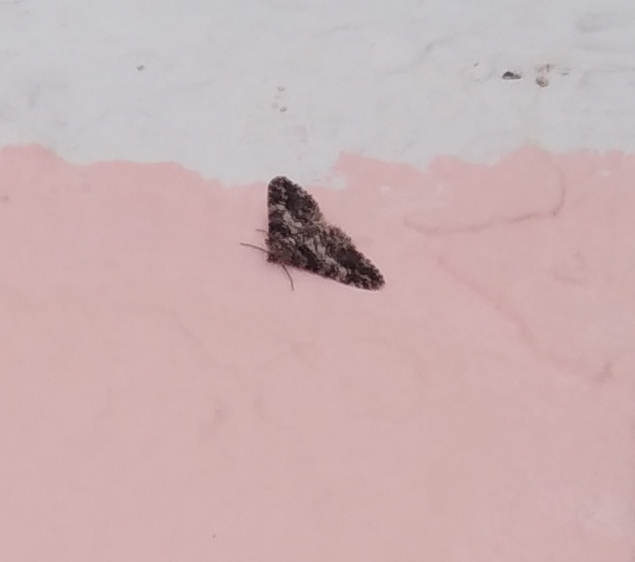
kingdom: Animalia
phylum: Arthropoda
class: Insecta
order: Lepidoptera
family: Geometridae
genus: Cleora
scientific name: Cleora cinctaria
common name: Ringed carpet
